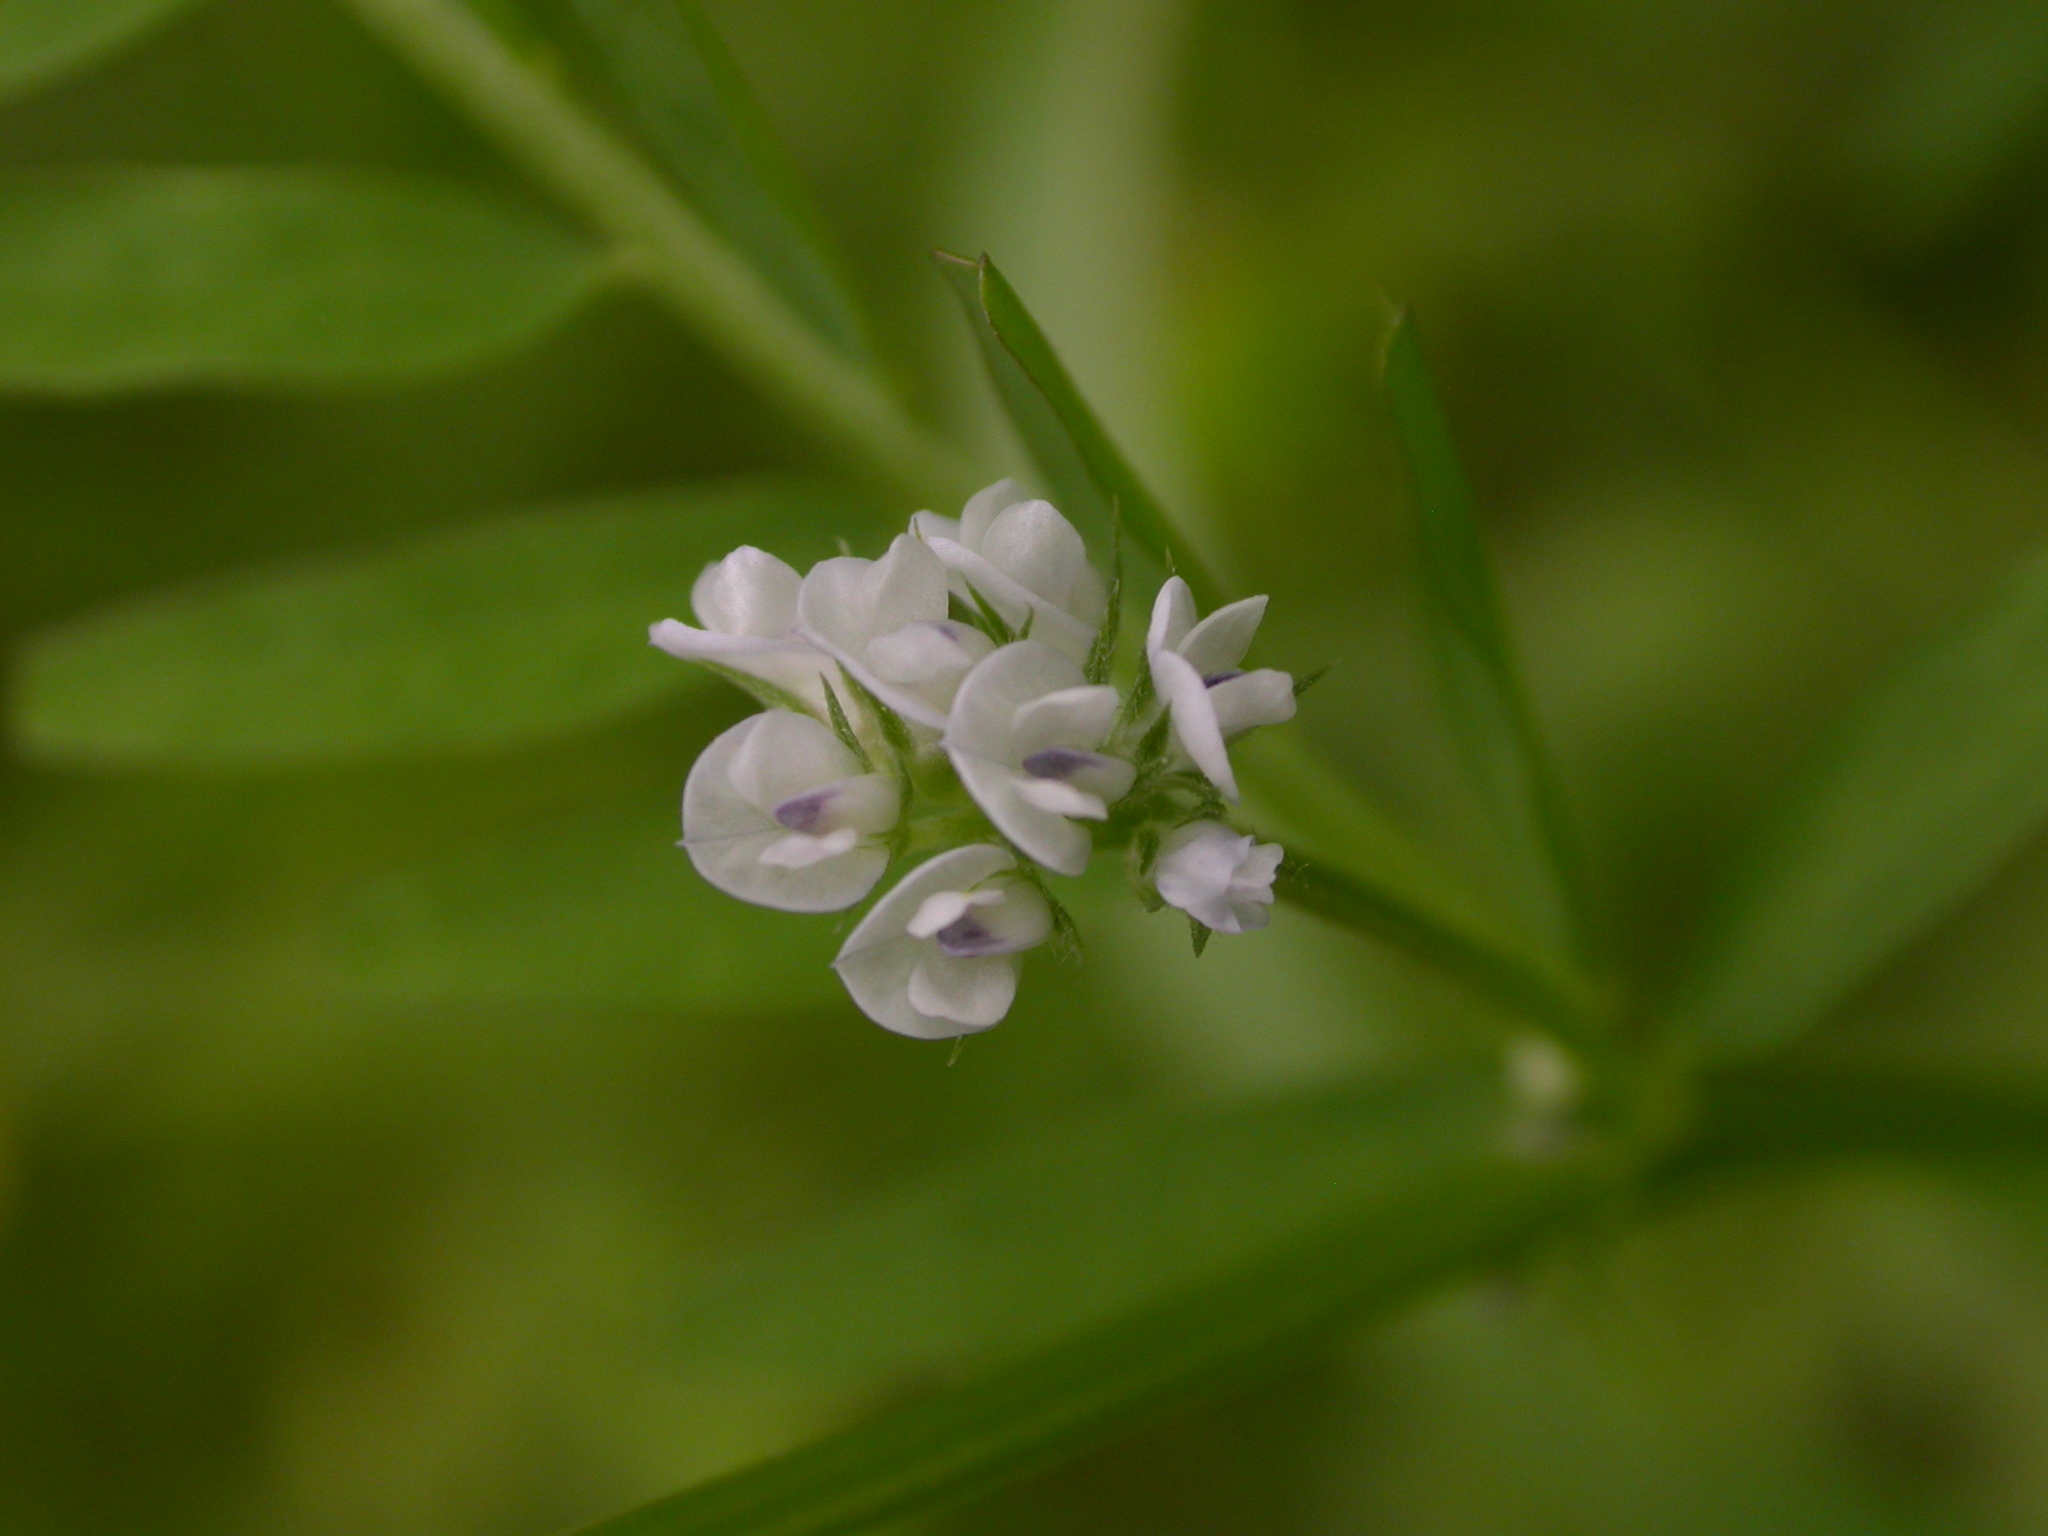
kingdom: Plantae
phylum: Tracheophyta
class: Magnoliopsida
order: Fabales
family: Fabaceae
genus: Vicia
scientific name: Vicia hirsuta
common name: Tiny vetch
